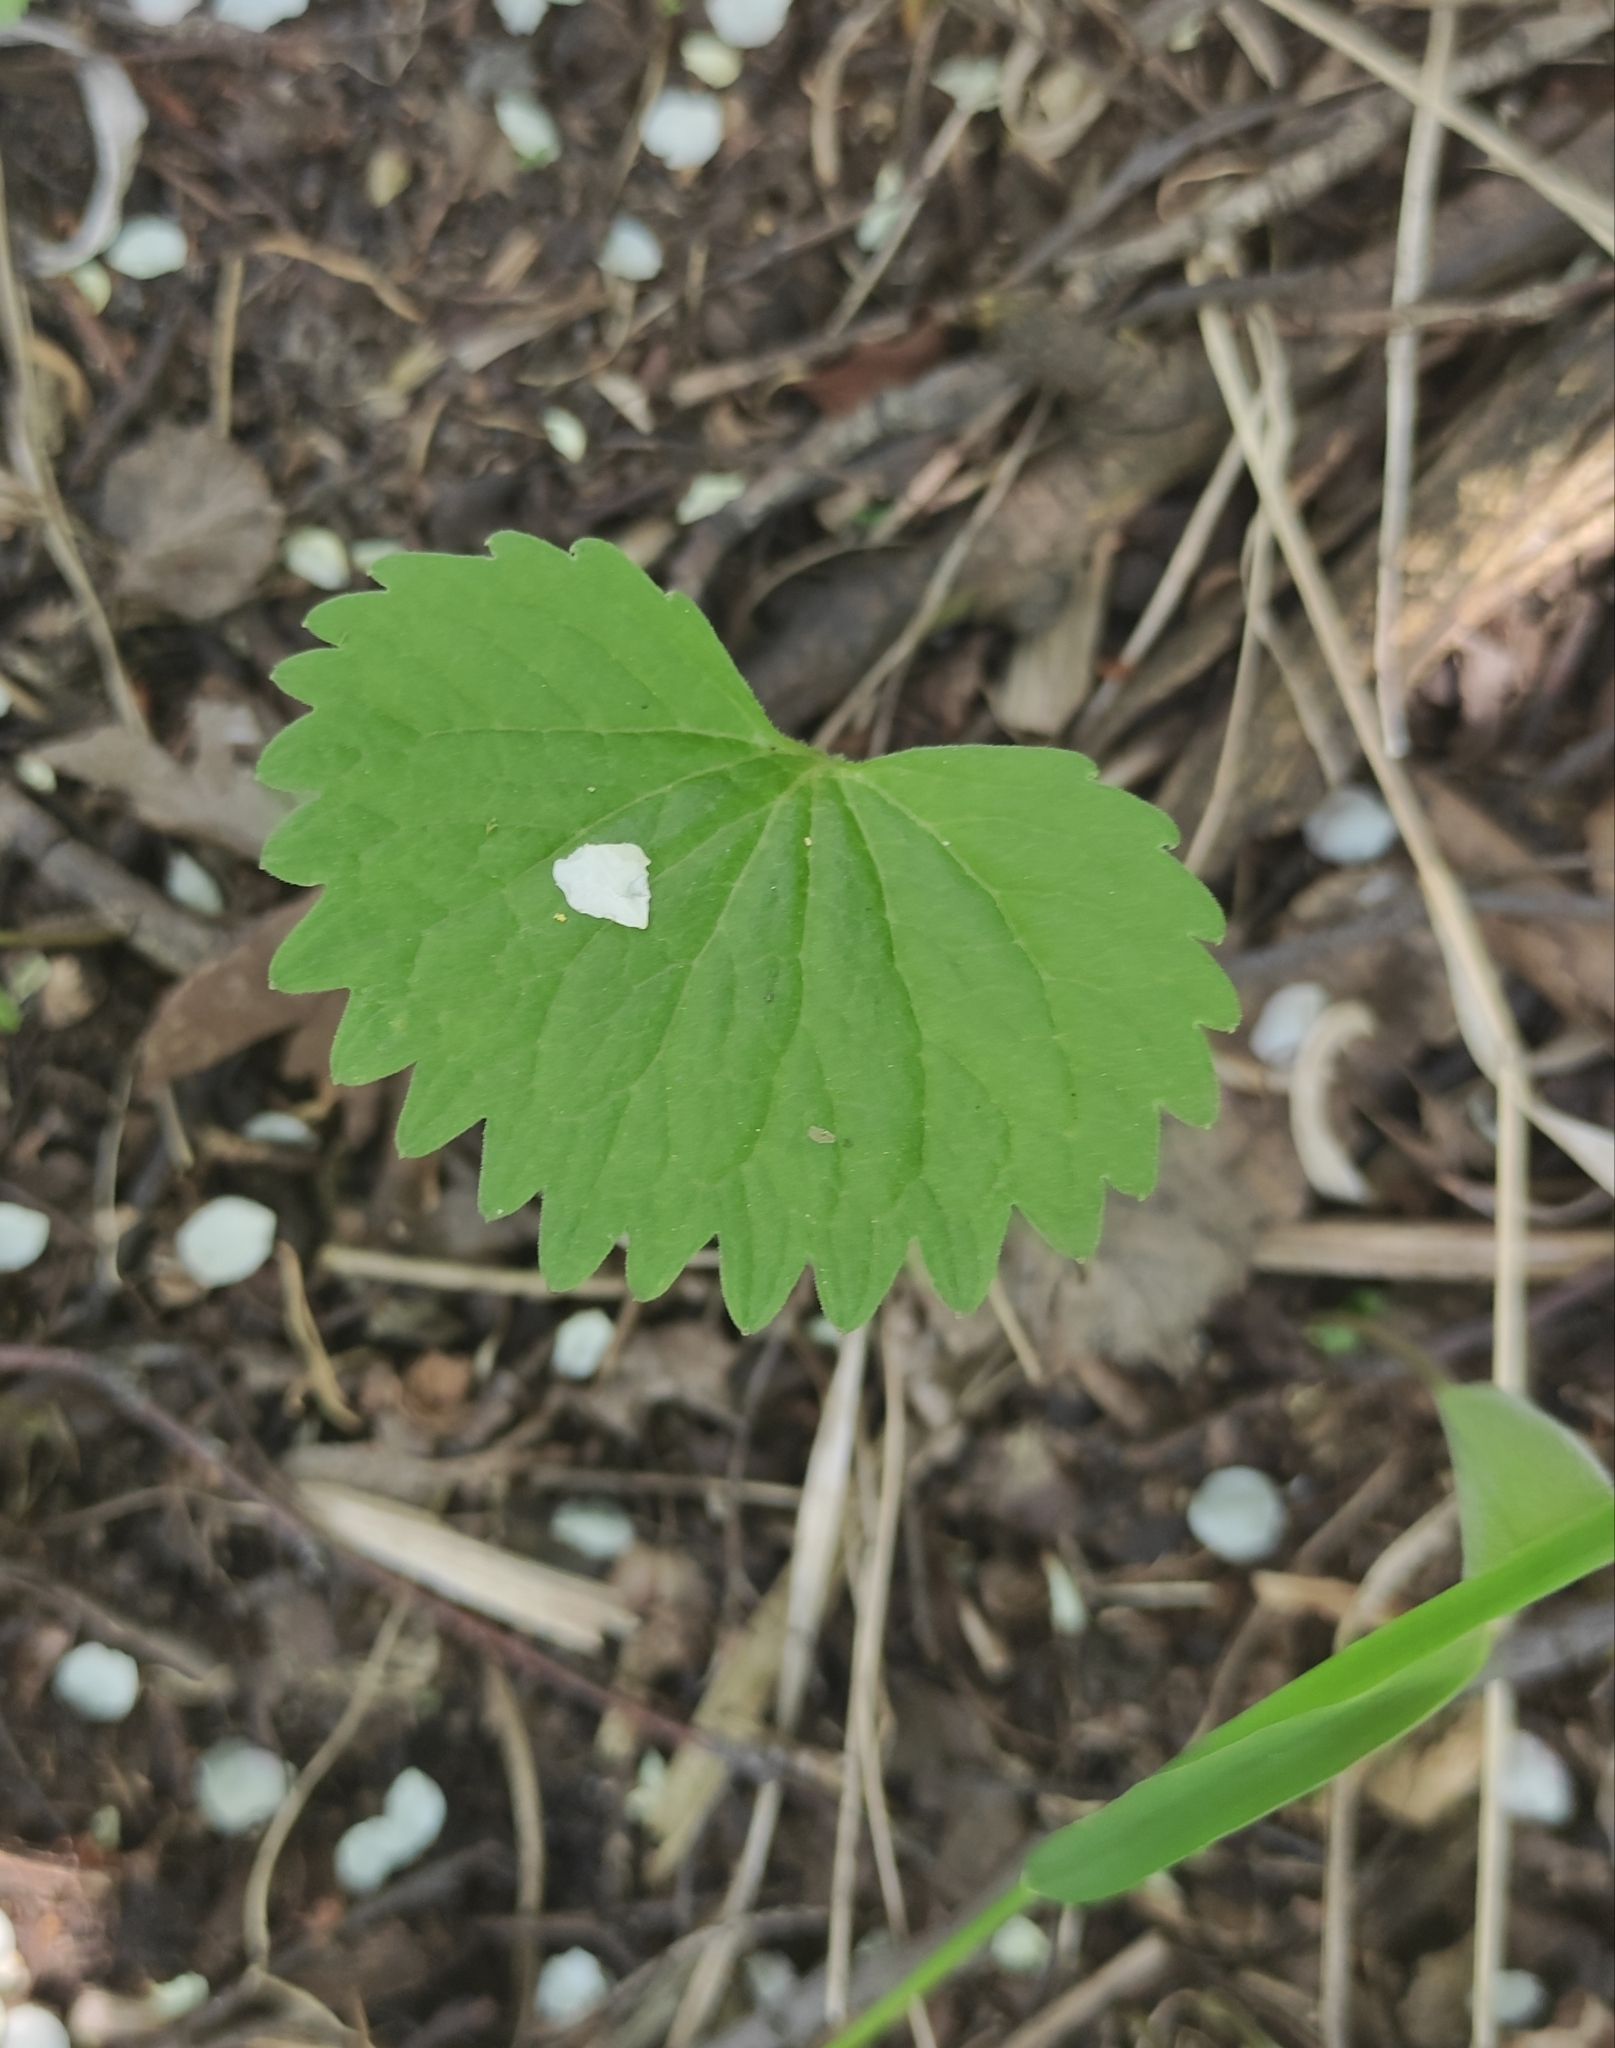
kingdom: Plantae
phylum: Tracheophyta
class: Magnoliopsida
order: Malpighiales
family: Violaceae
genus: Viola
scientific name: Viola uniflora
